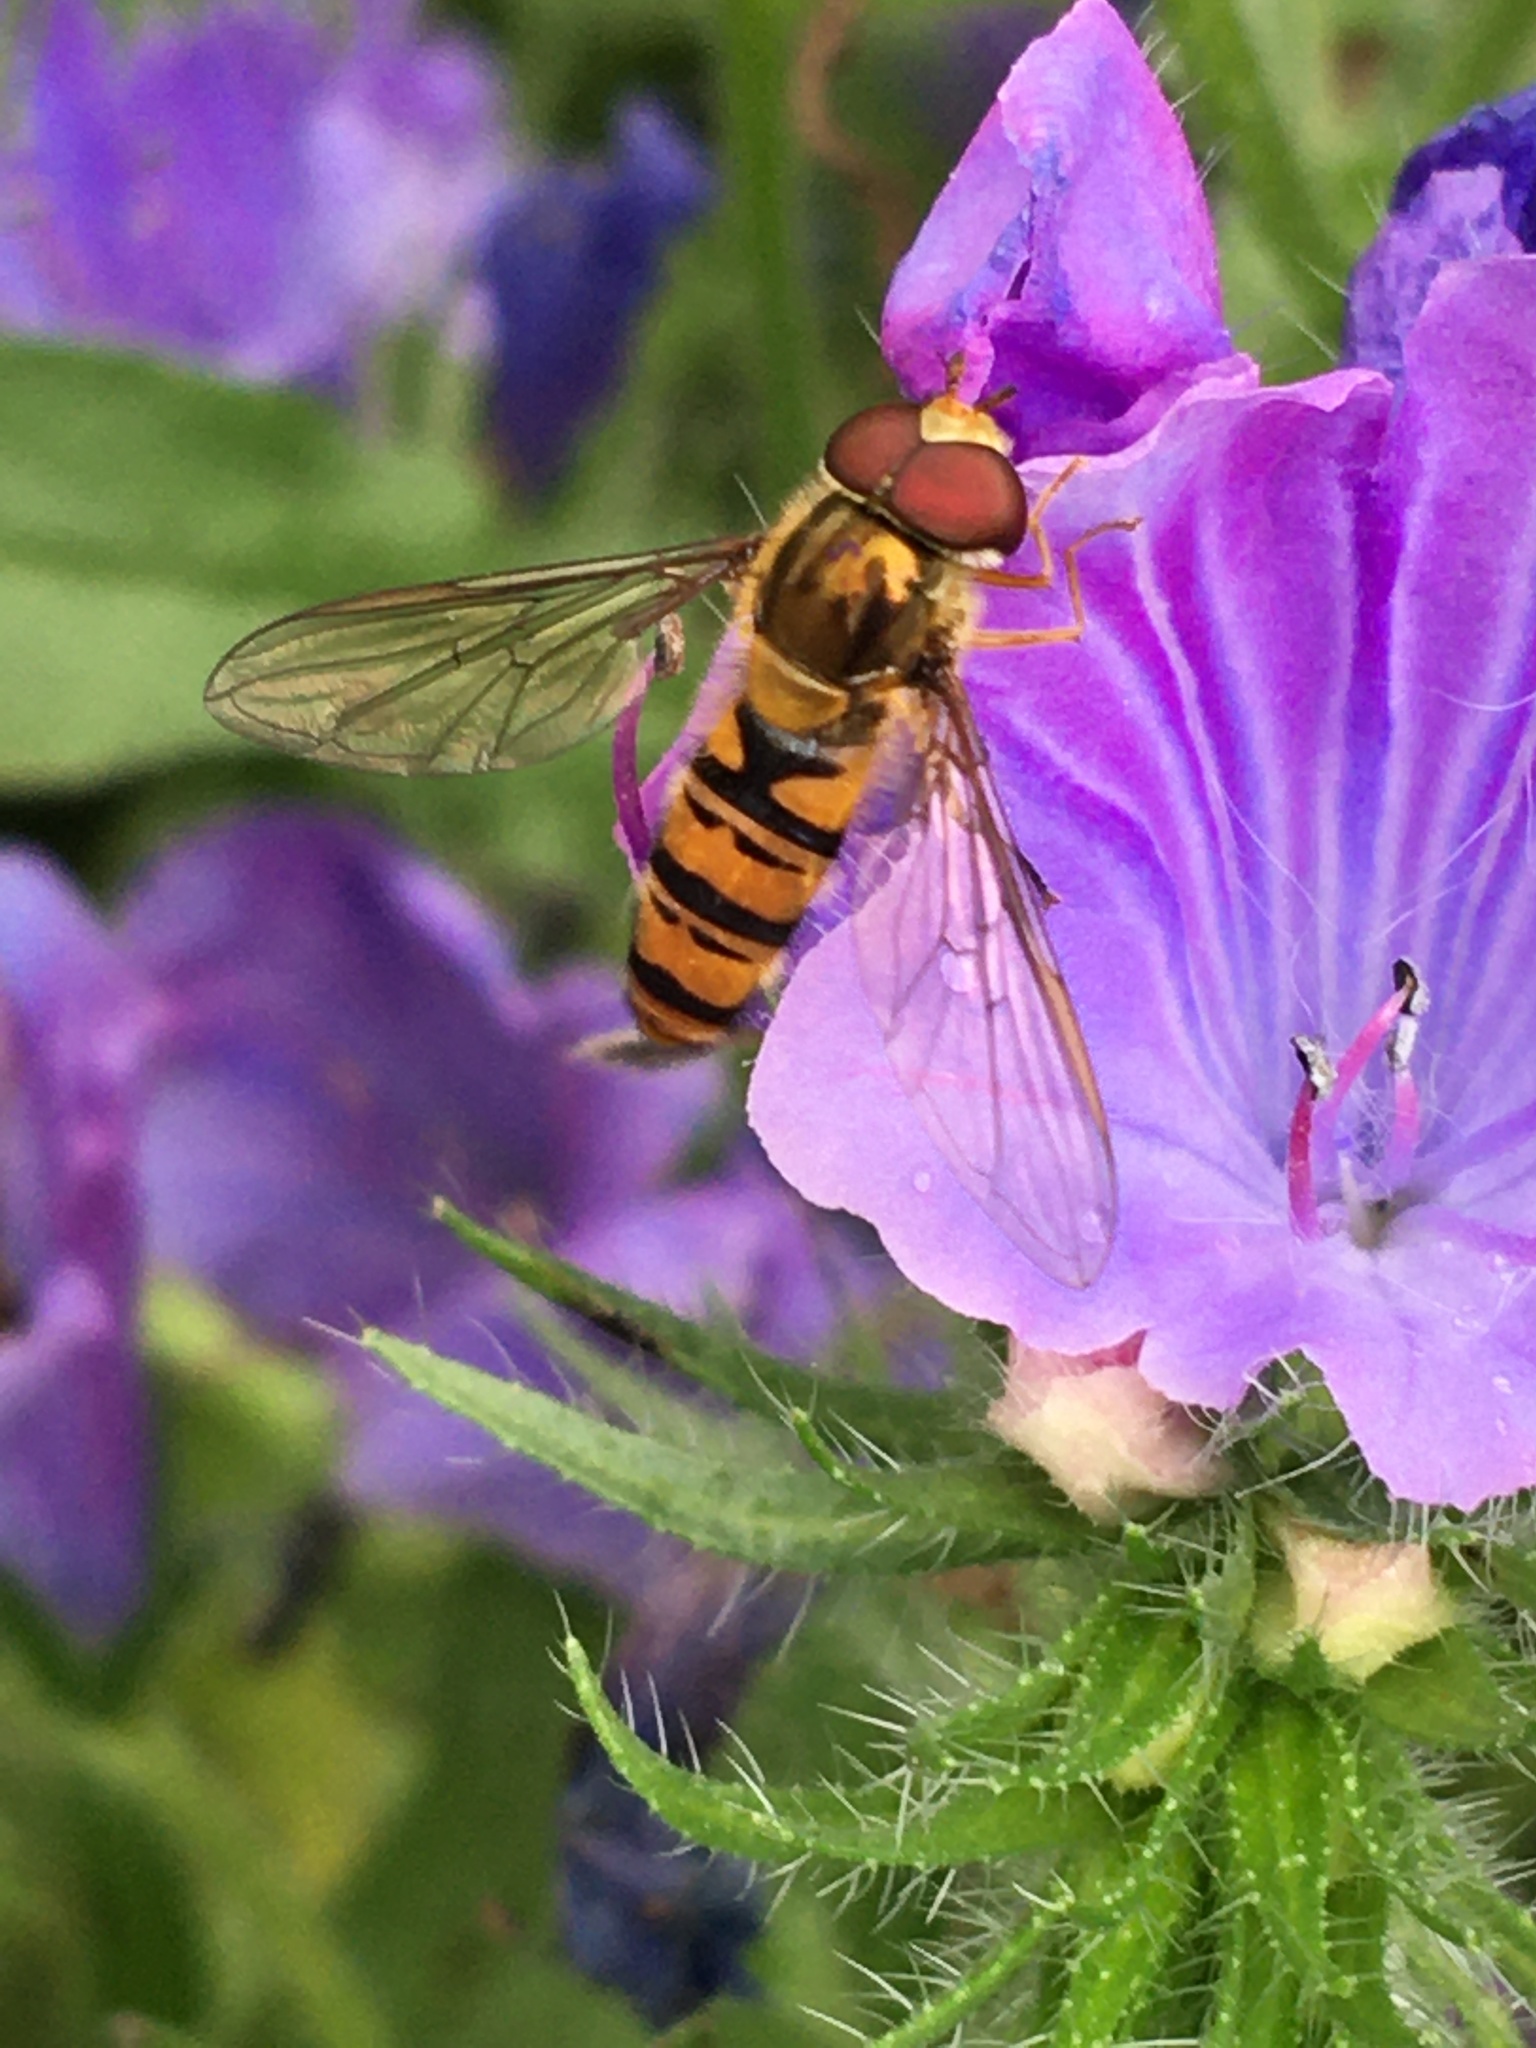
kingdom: Animalia
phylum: Arthropoda
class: Insecta
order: Diptera
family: Syrphidae
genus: Episyrphus
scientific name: Episyrphus balteatus
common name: Marmalade hoverfly
